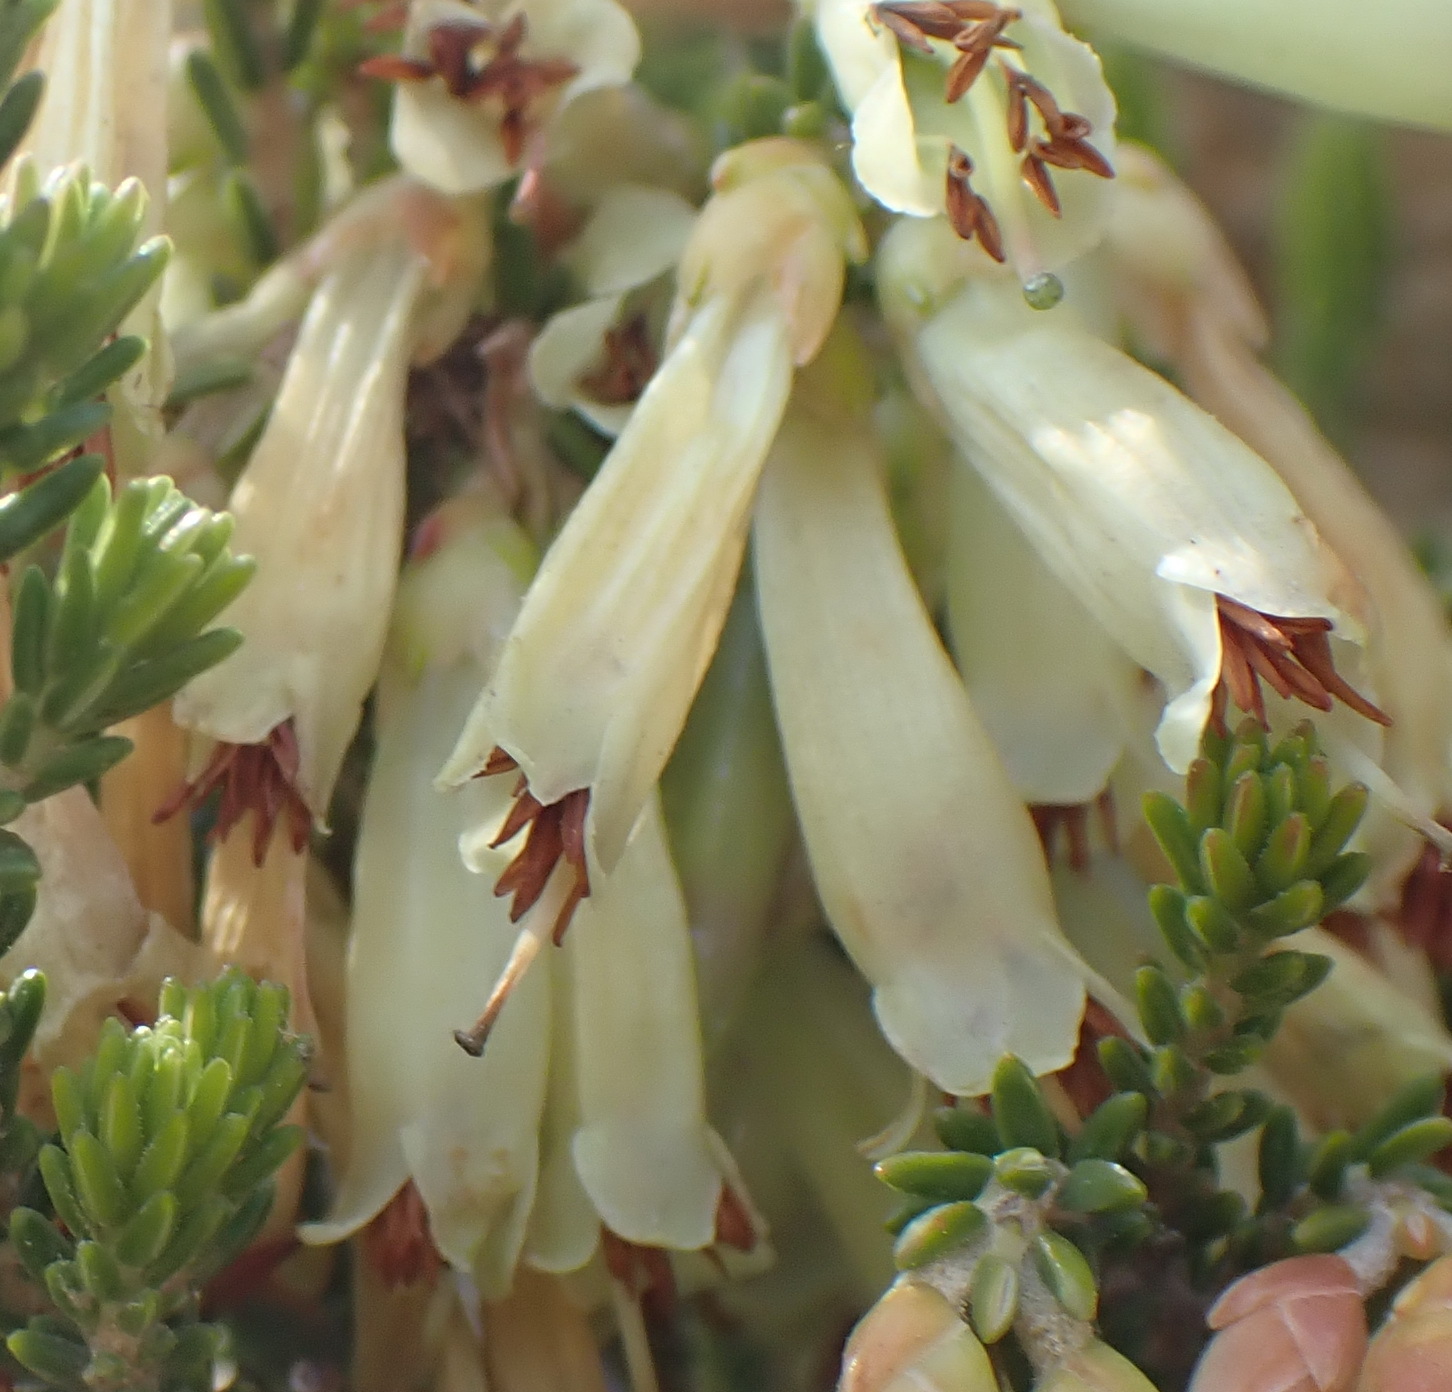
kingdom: Plantae
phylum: Tracheophyta
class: Magnoliopsida
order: Ericales
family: Ericaceae
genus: Erica
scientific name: Erica viridiflora
